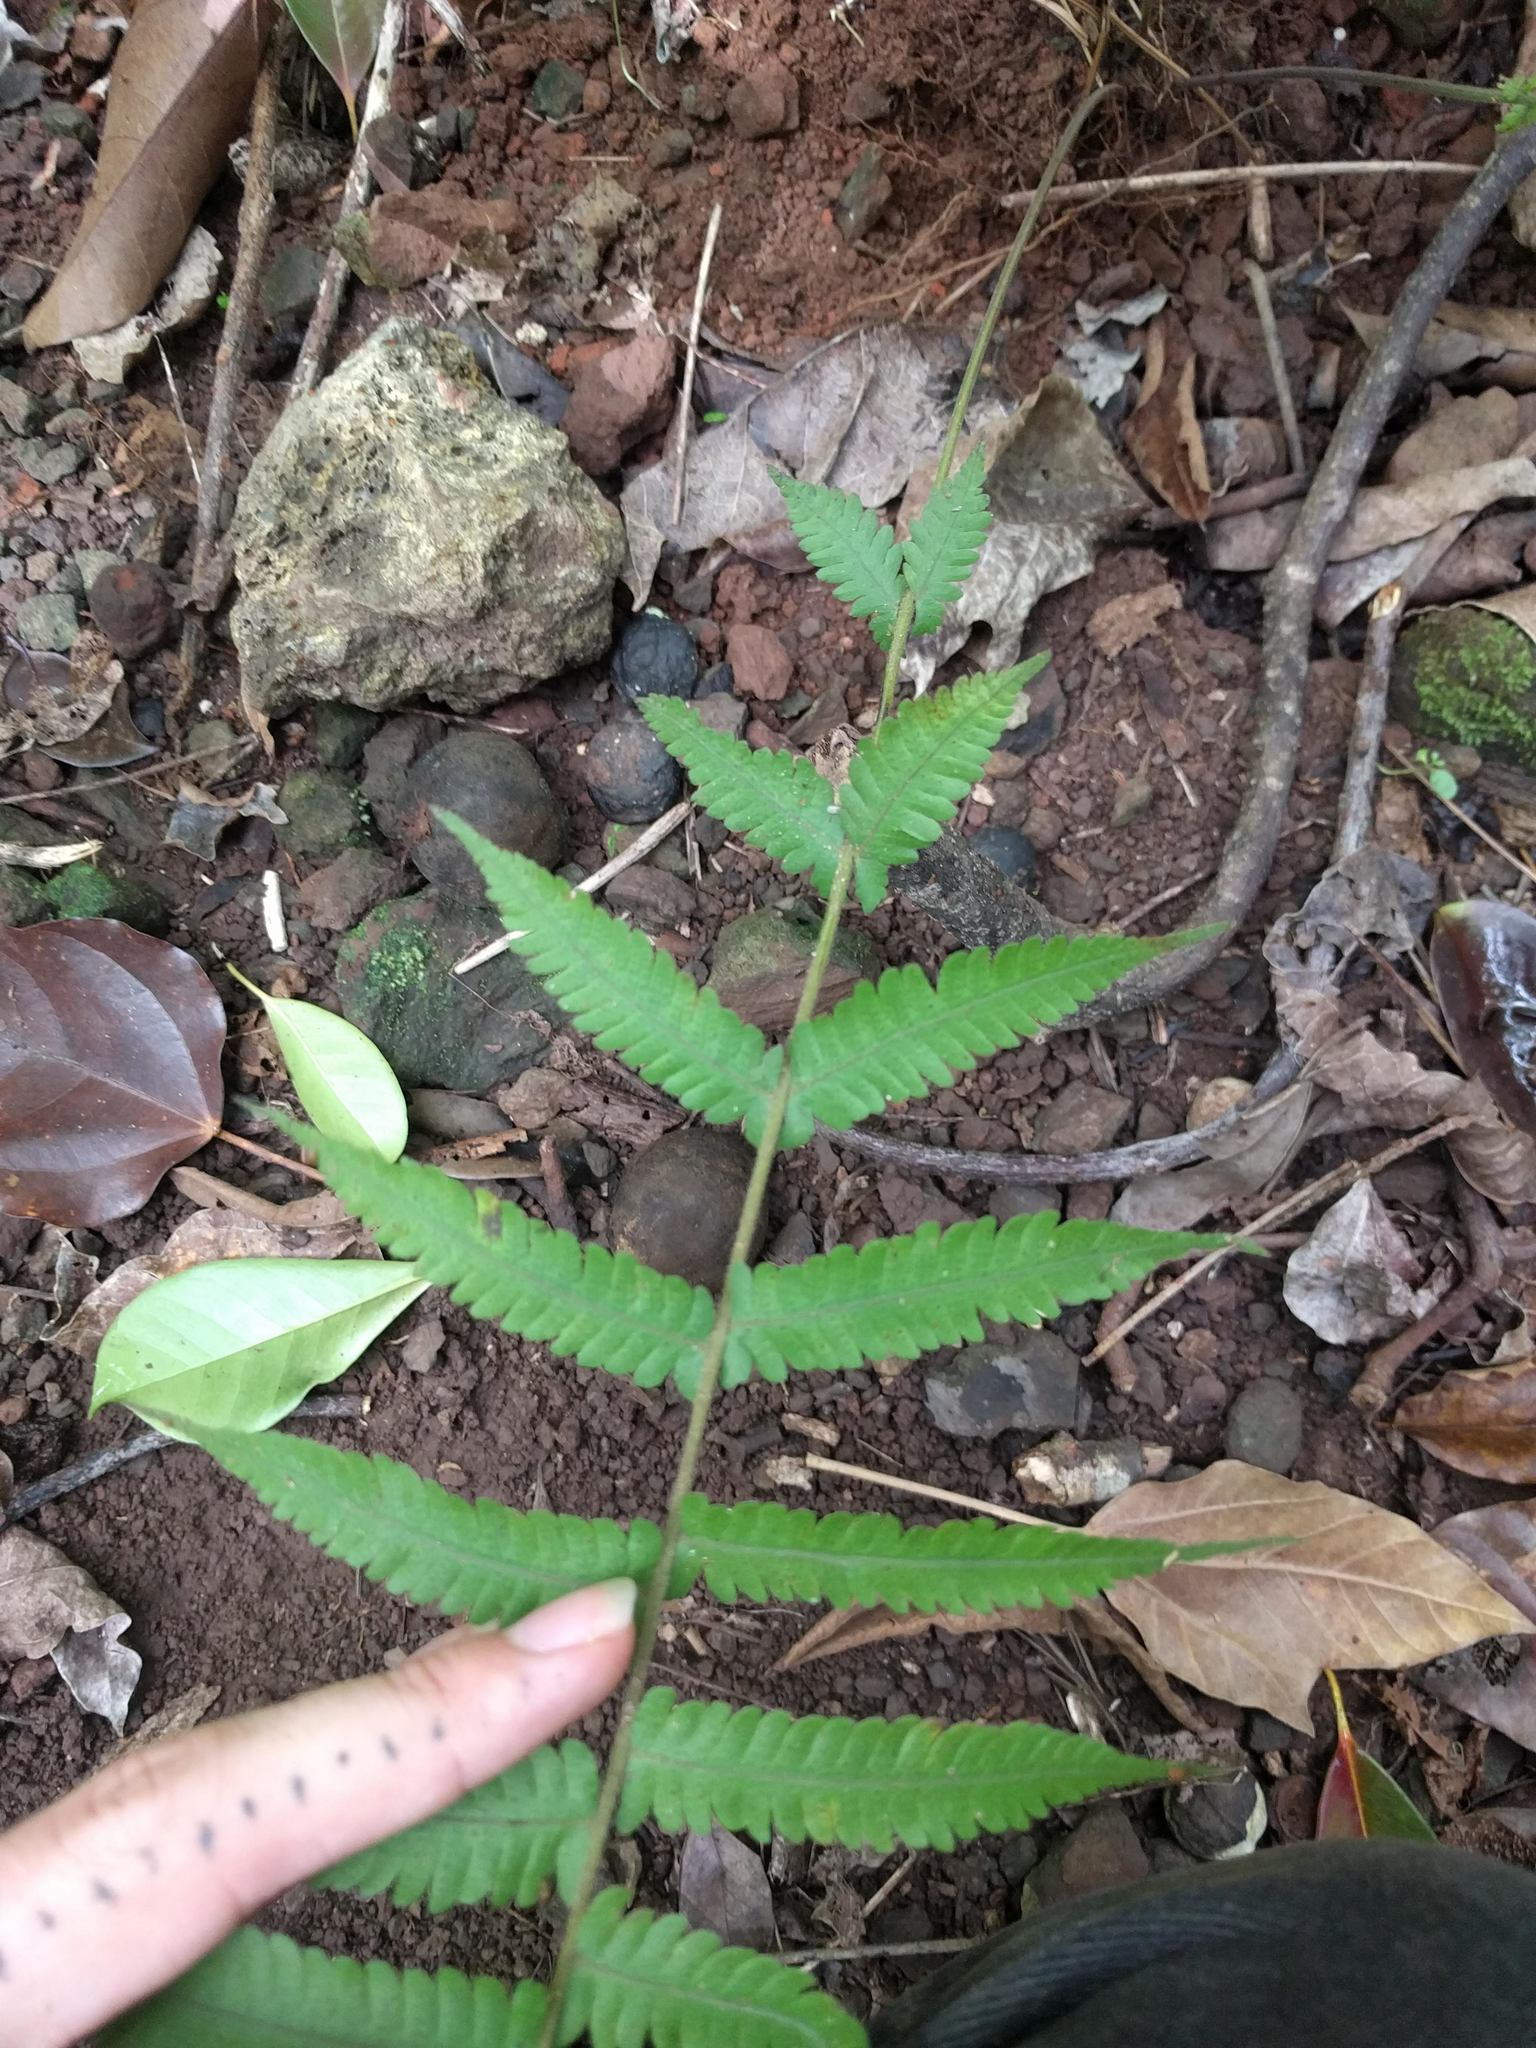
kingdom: Plantae
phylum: Tracheophyta
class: Polypodiopsida
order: Polypodiales
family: Thelypteridaceae
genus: Christella
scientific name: Christella dentata
